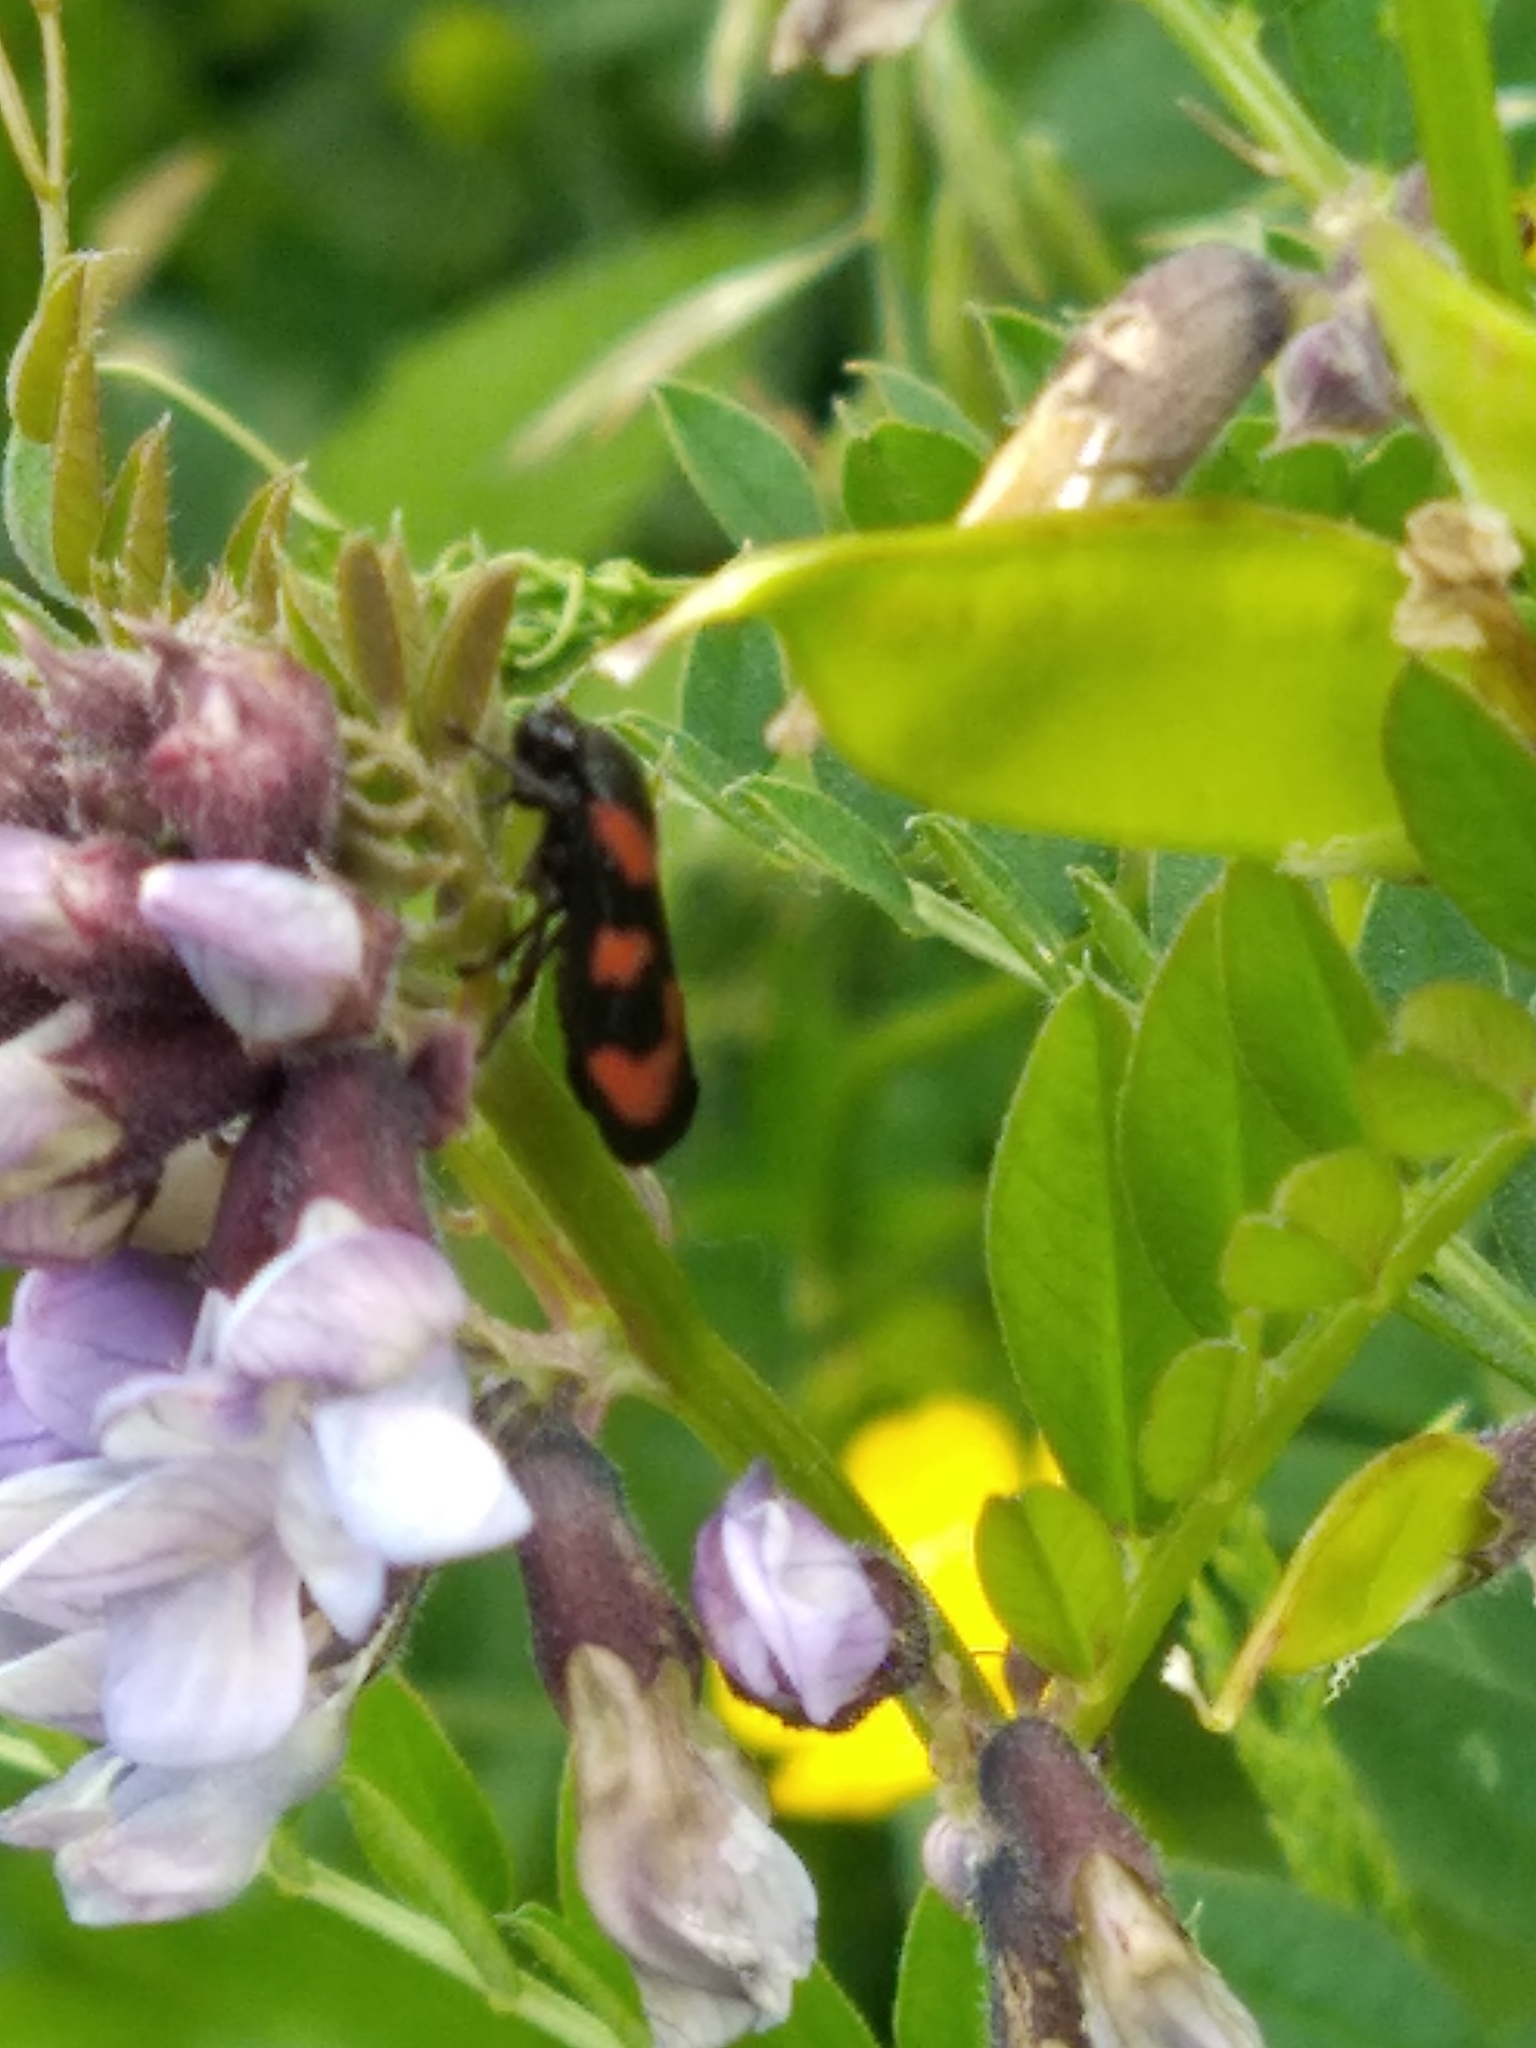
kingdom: Animalia
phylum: Arthropoda
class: Insecta
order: Hemiptera
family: Cercopidae
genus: Cercopis
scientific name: Cercopis vulnerata
